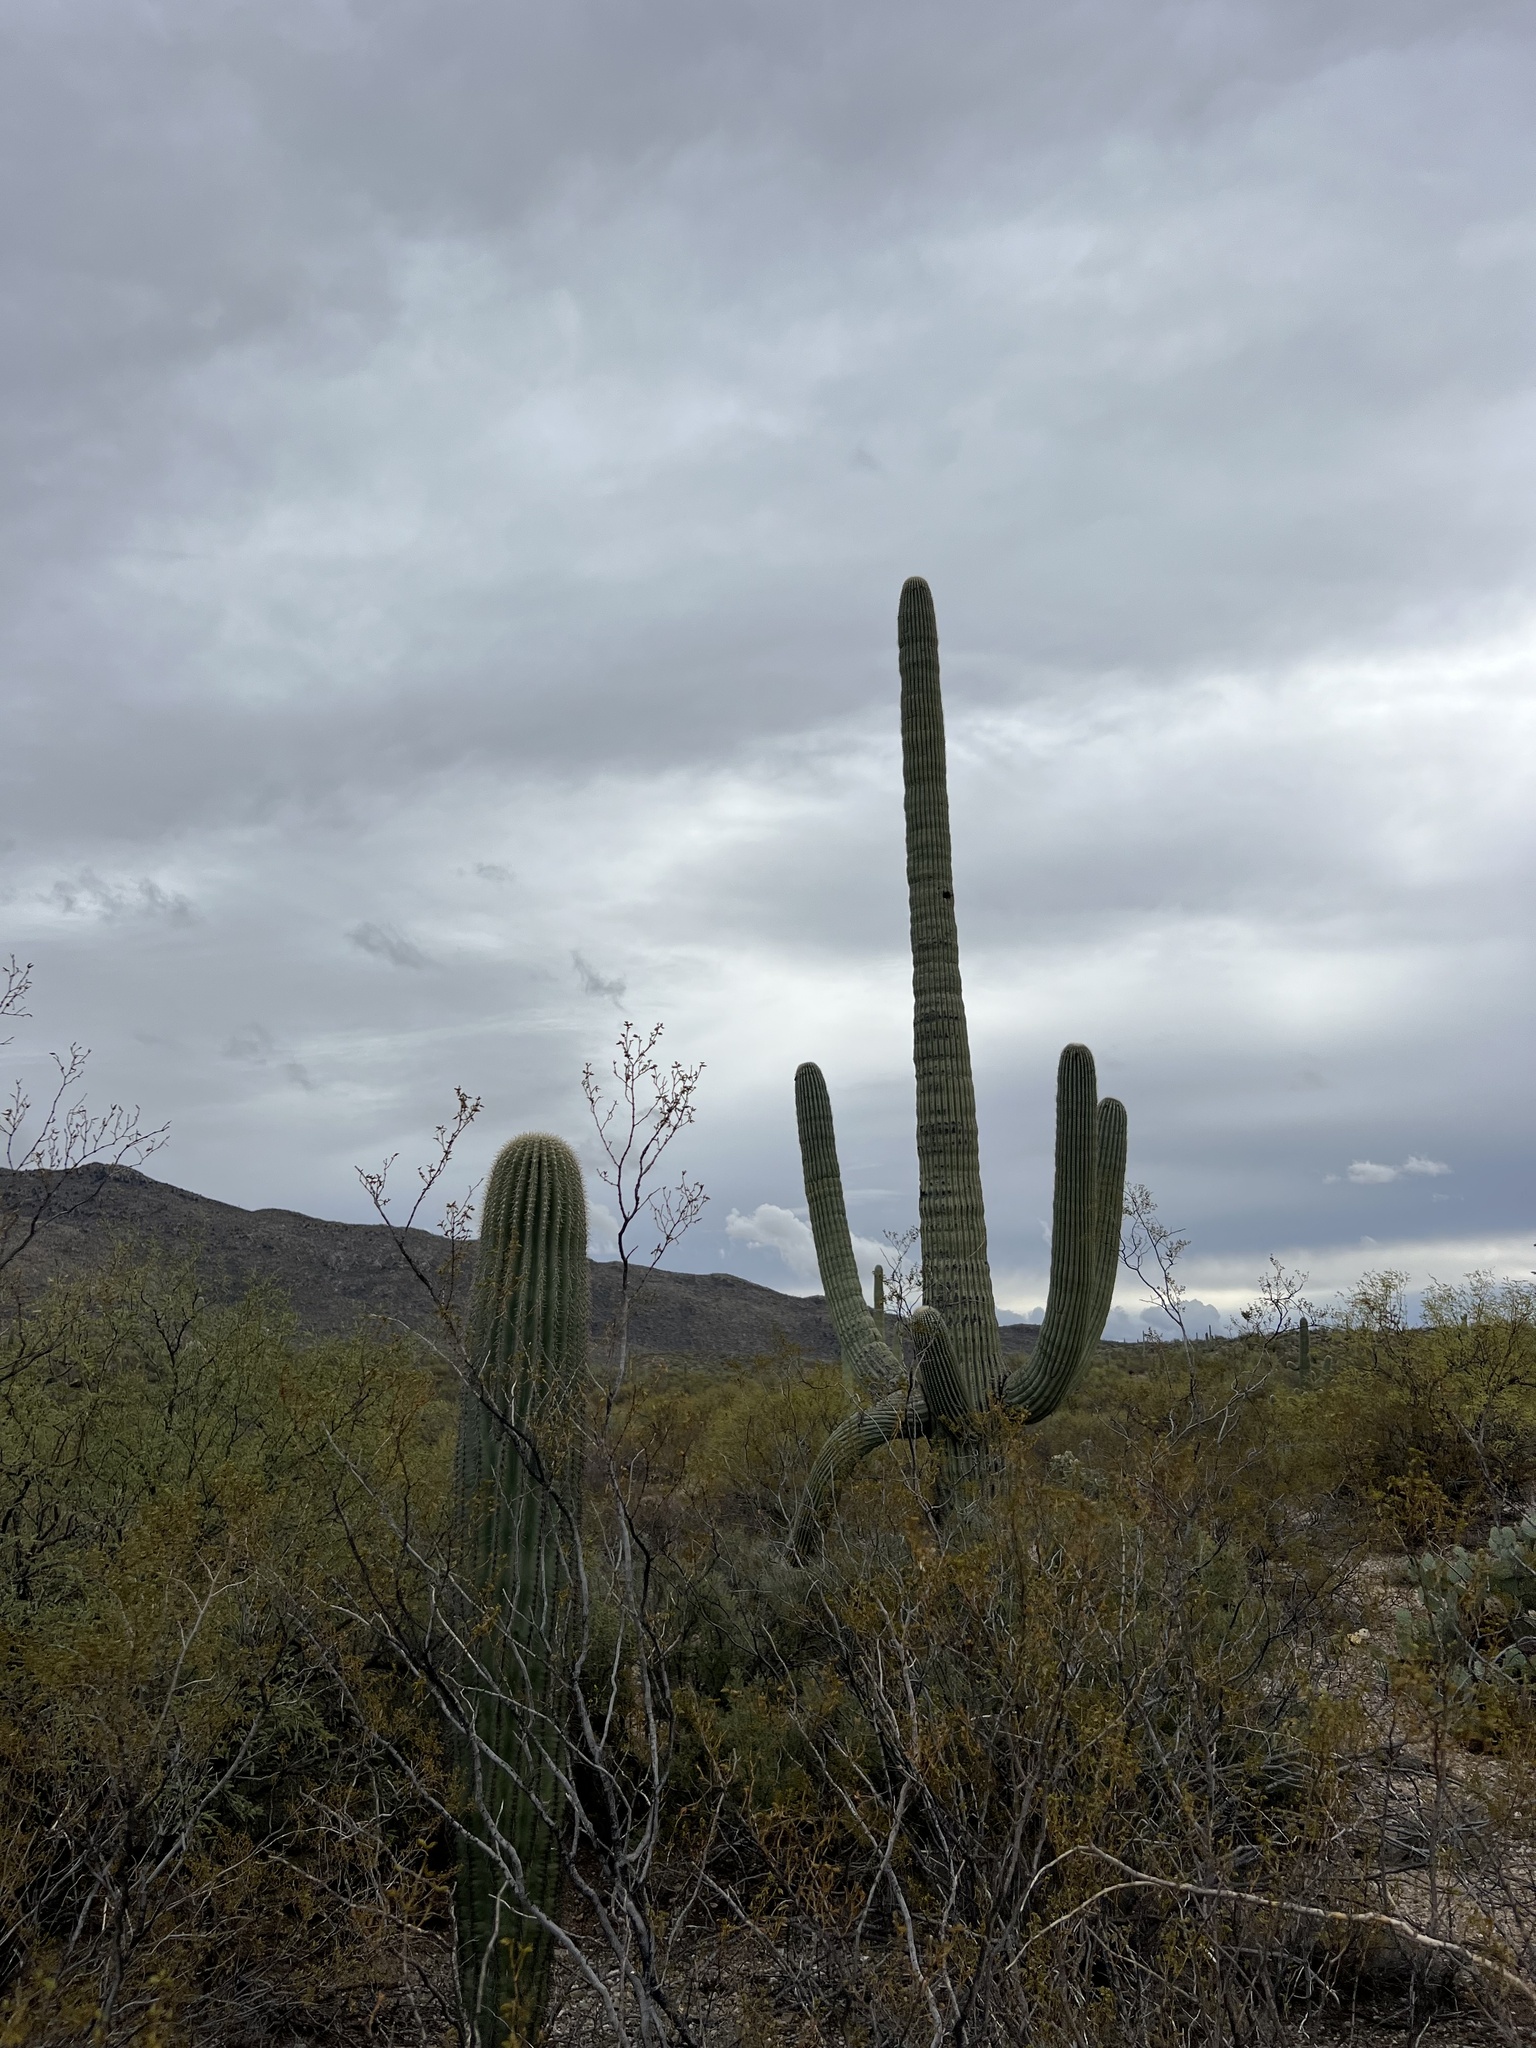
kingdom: Plantae
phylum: Tracheophyta
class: Magnoliopsida
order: Caryophyllales
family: Cactaceae
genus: Carnegiea
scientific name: Carnegiea gigantea
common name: Saguaro
